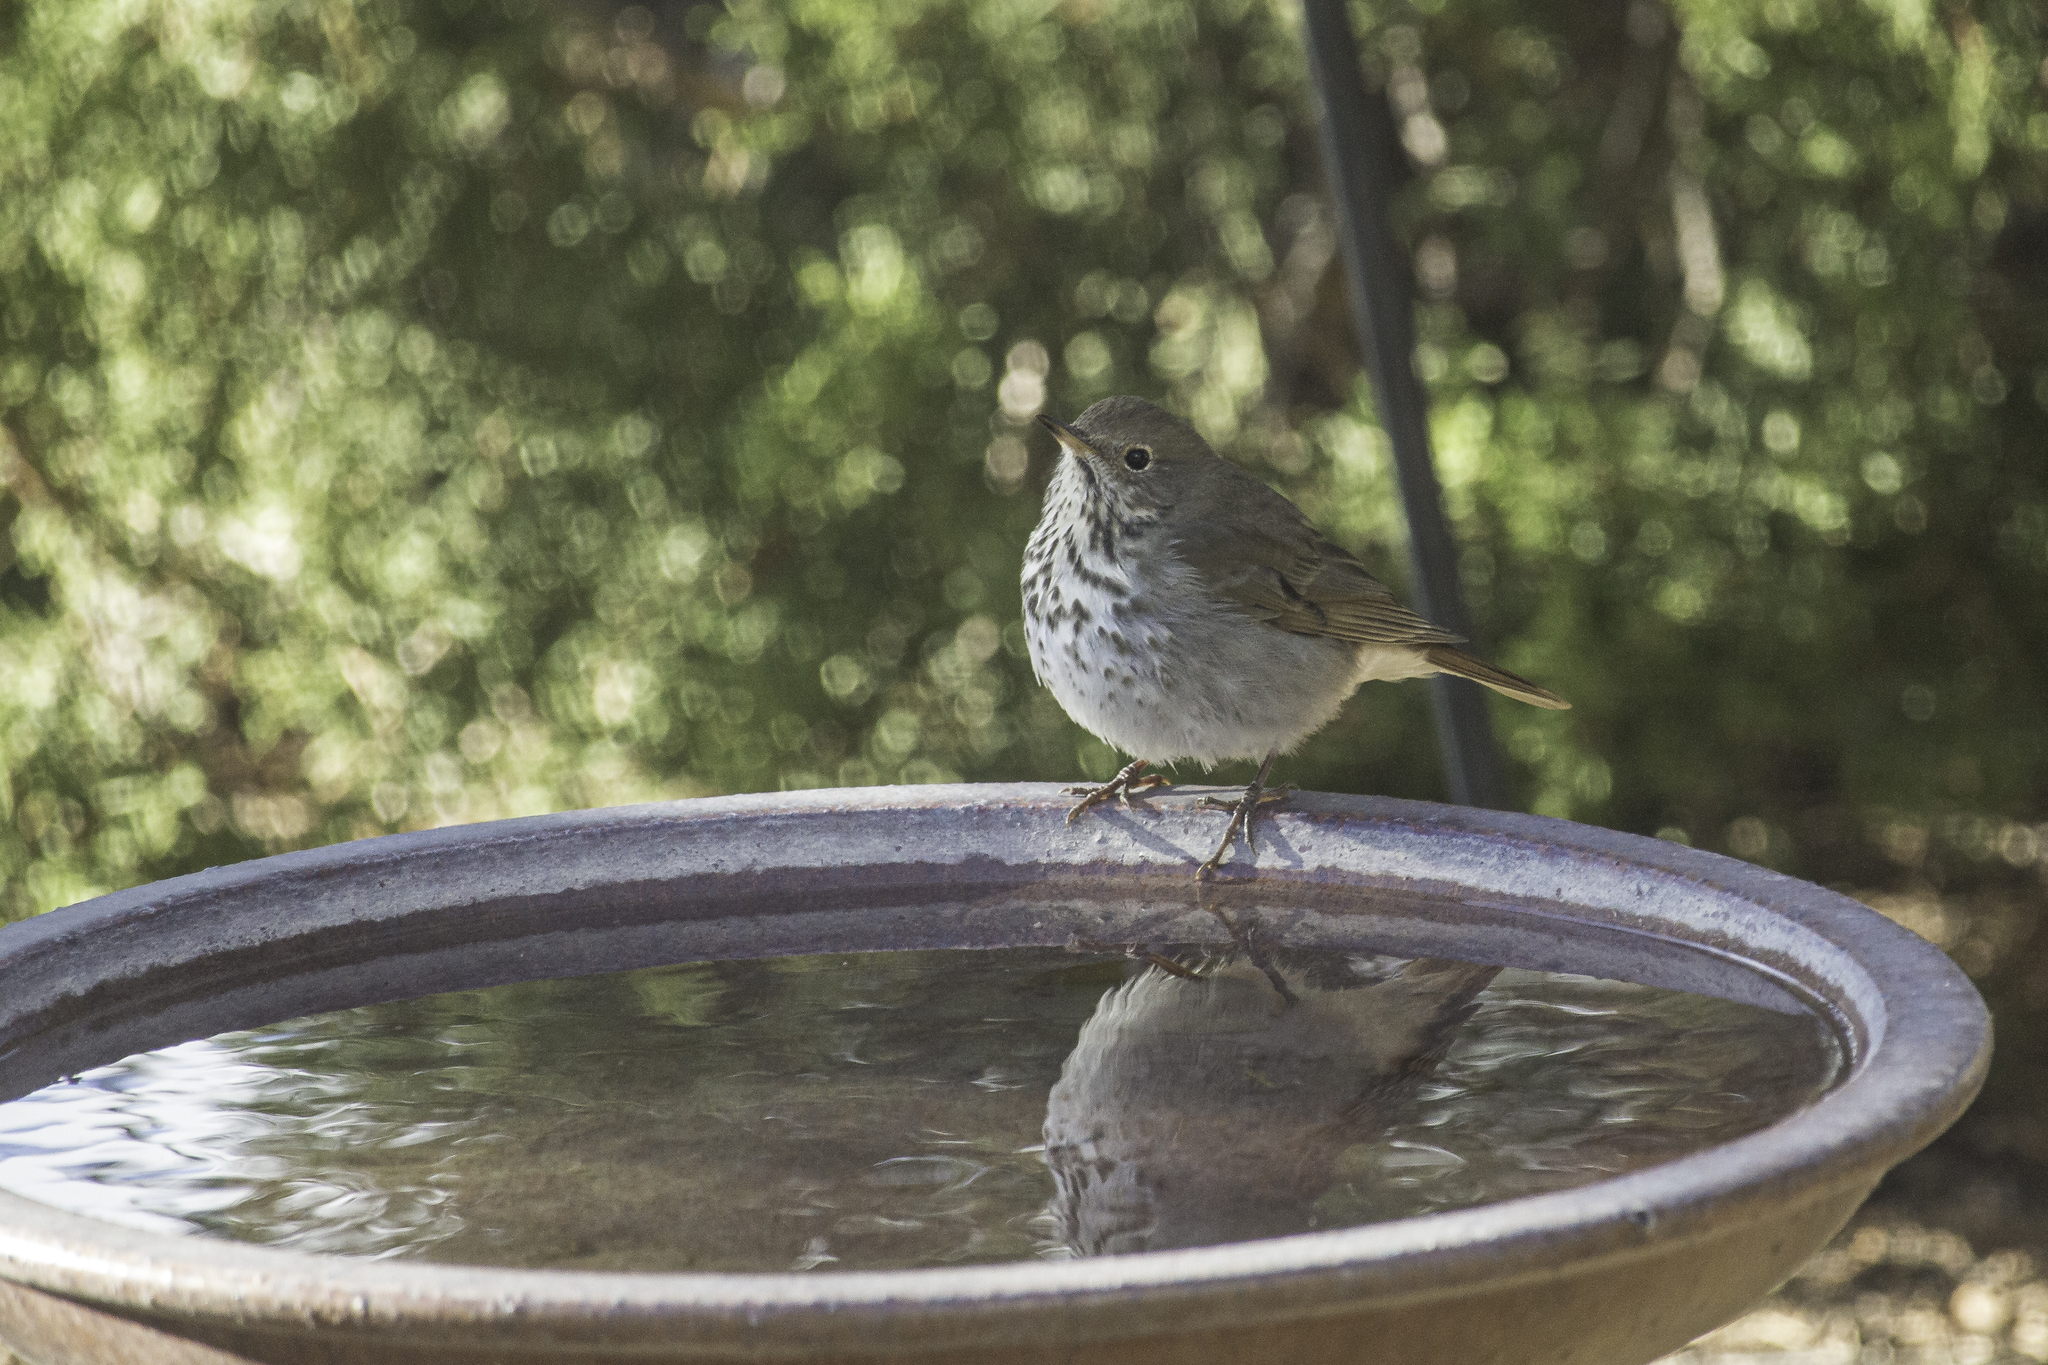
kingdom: Animalia
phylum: Chordata
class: Aves
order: Passeriformes
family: Turdidae
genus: Catharus
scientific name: Catharus guttatus
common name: Hermit thrush
